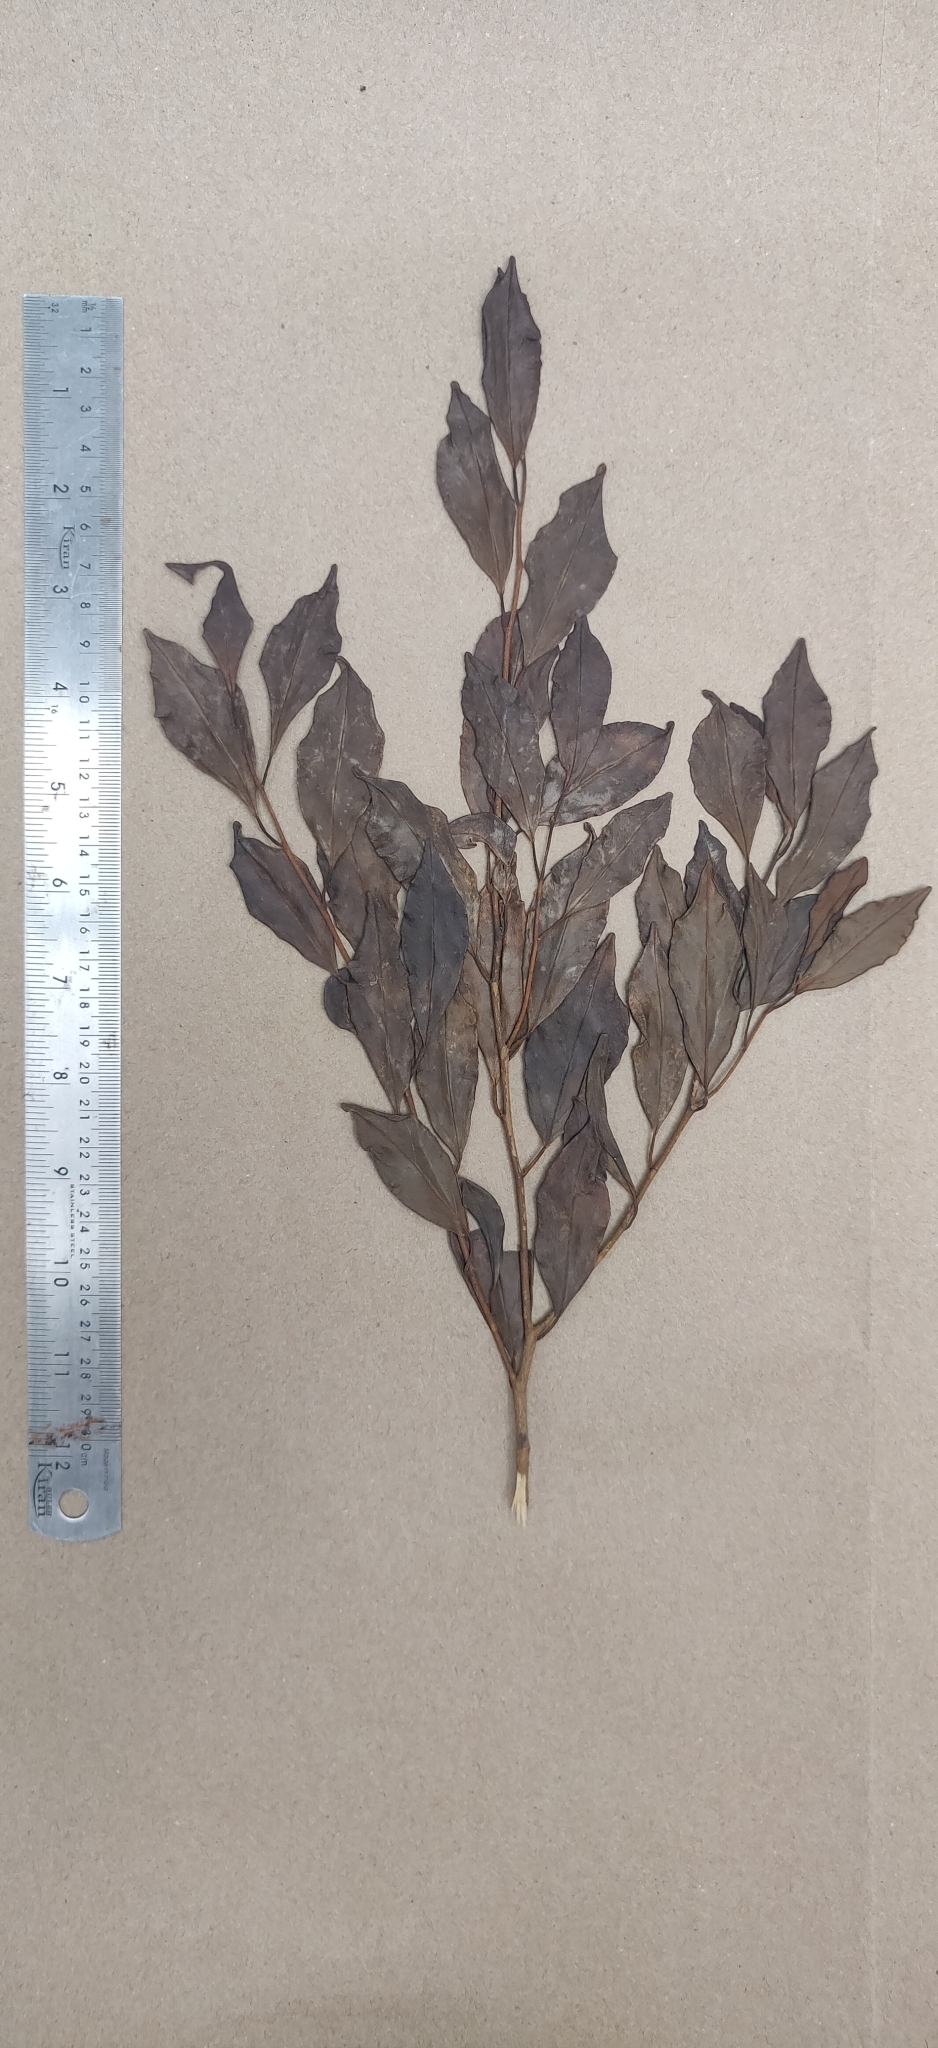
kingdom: Plantae
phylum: Tracheophyta
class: Magnoliopsida
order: Cardiopteridales
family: Stemonuraceae
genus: Gomphandra
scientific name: Gomphandra coriacea
